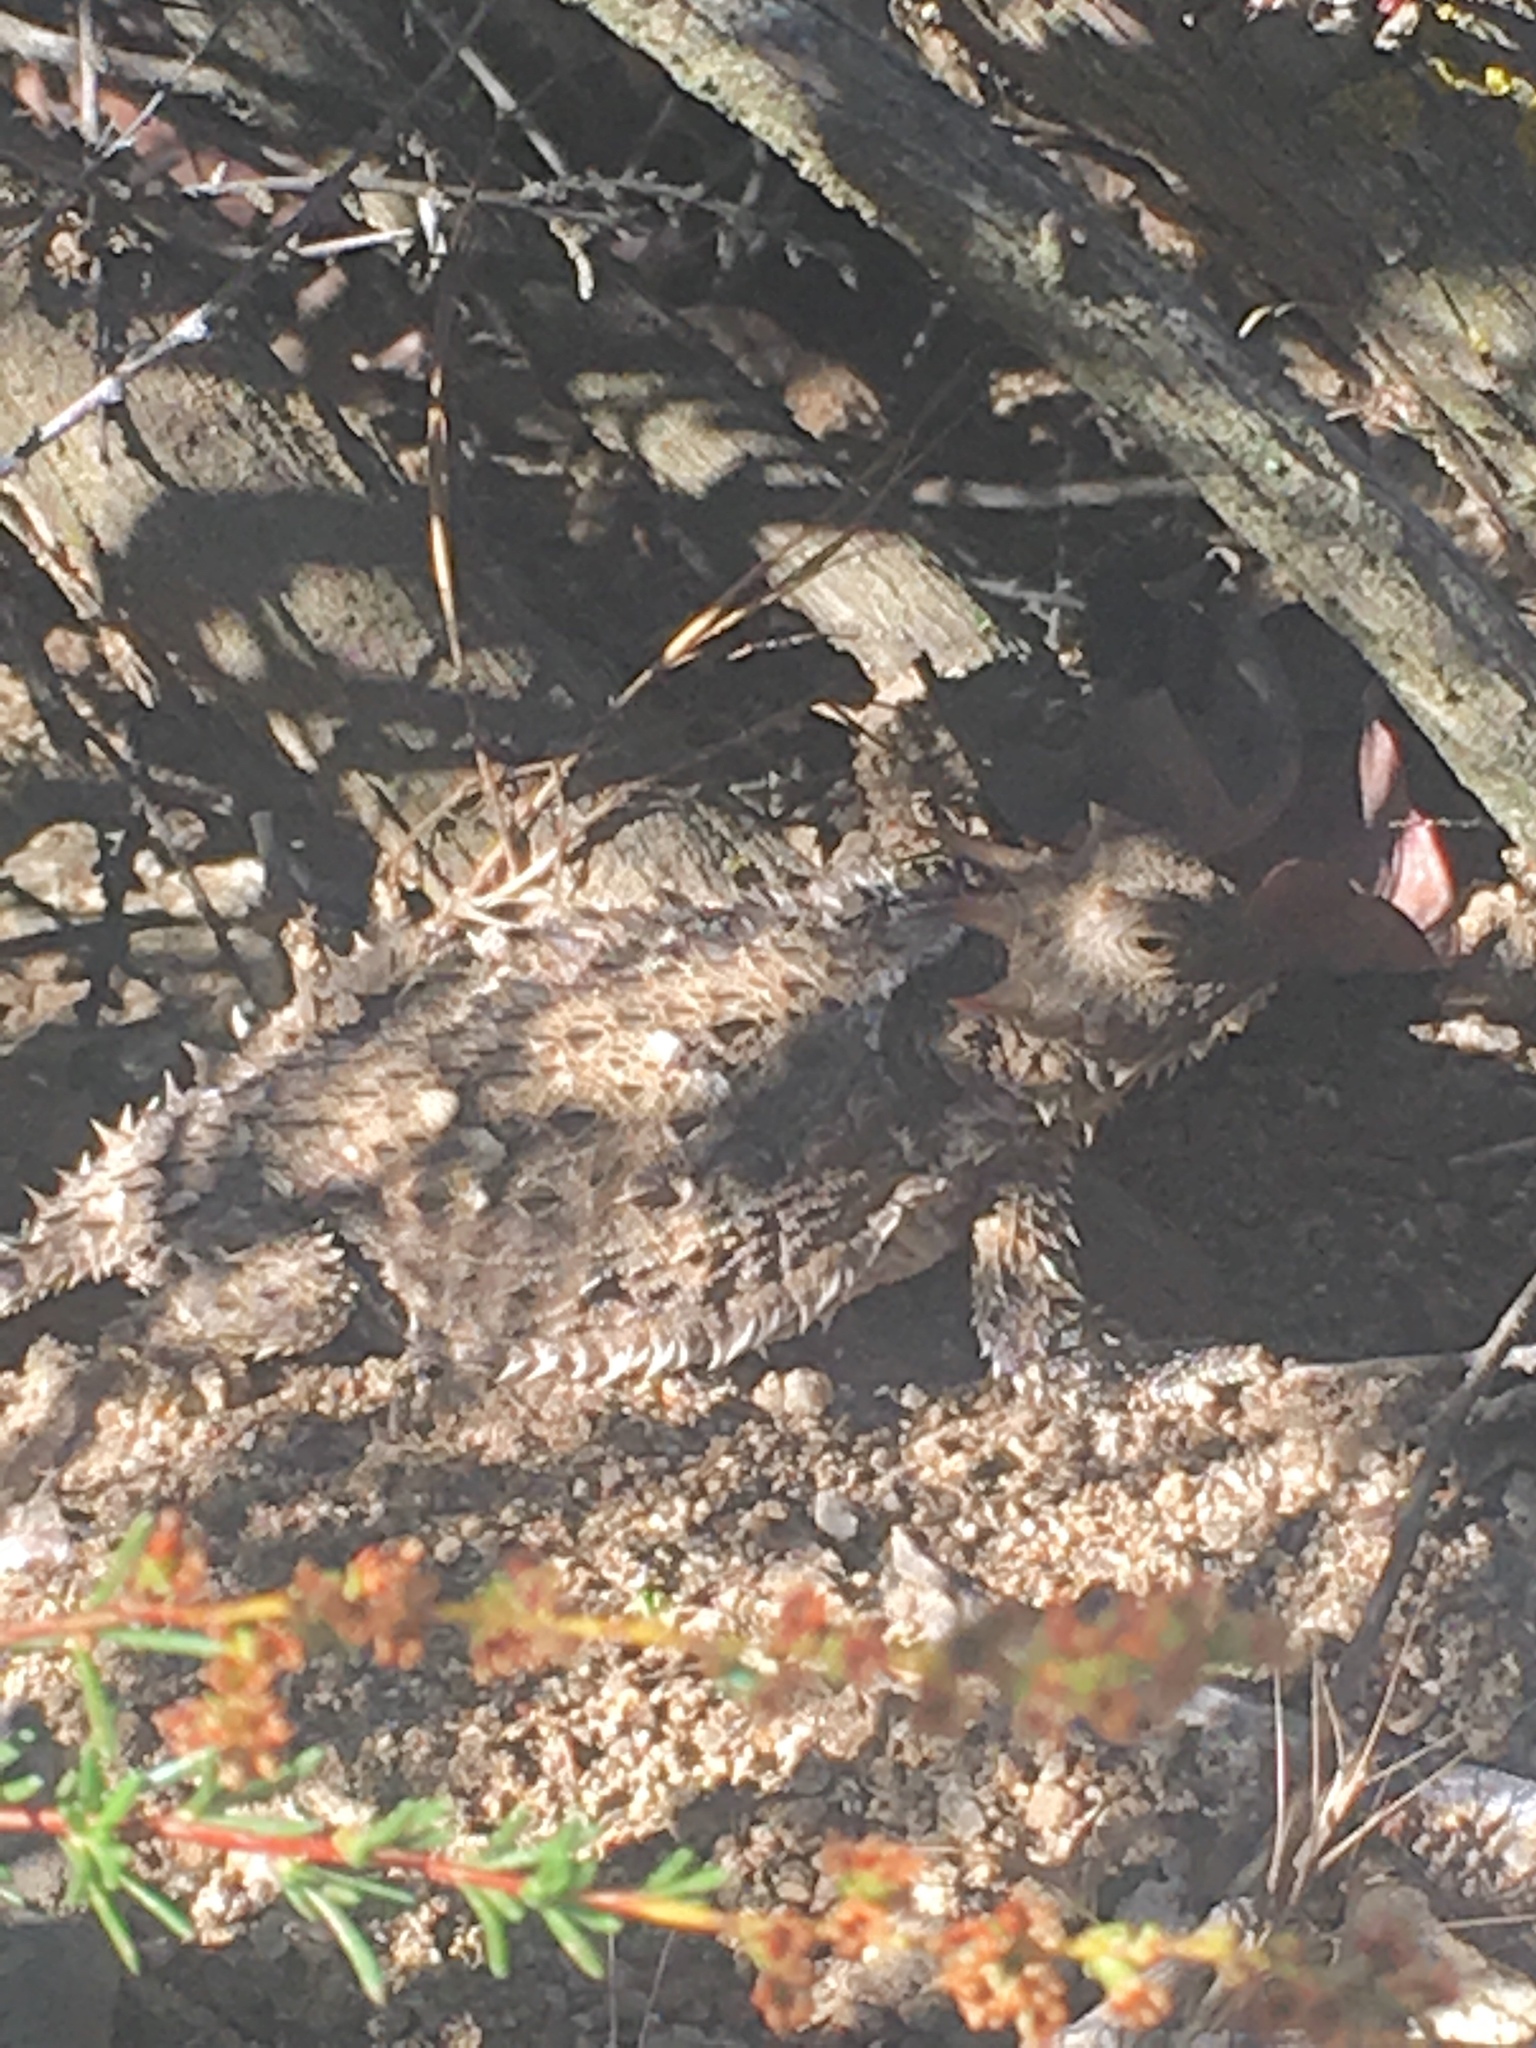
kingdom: Animalia
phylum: Chordata
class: Squamata
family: Phrynosomatidae
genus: Phrynosoma
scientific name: Phrynosoma blainvillii
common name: San diego horned lizard
